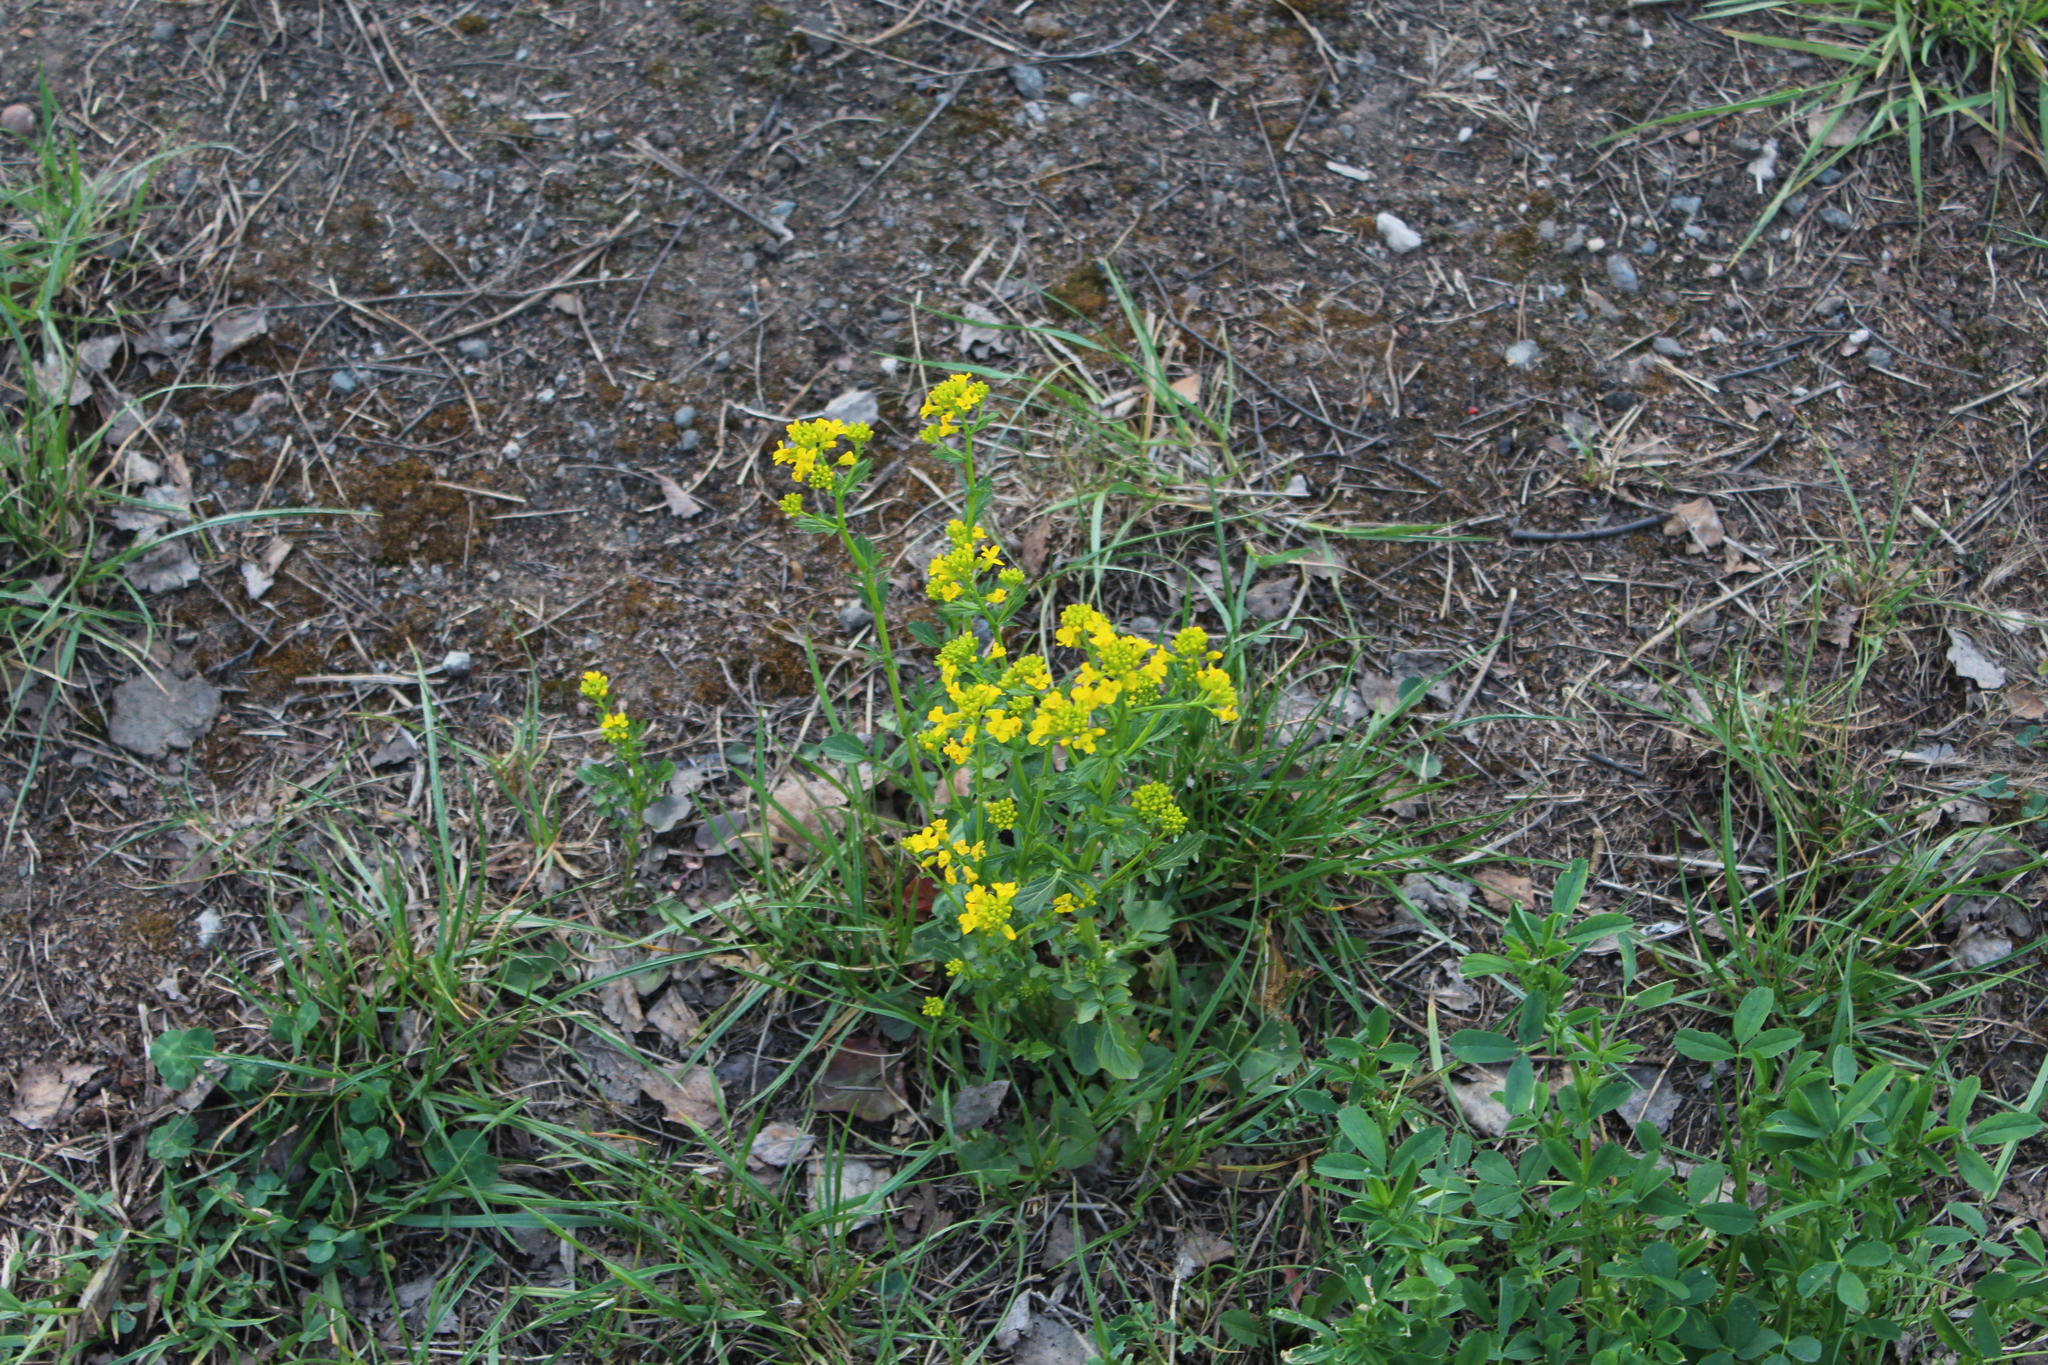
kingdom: Plantae
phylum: Tracheophyta
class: Magnoliopsida
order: Brassicales
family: Brassicaceae
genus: Barbarea
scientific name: Barbarea vulgaris
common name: Cressy-greens
